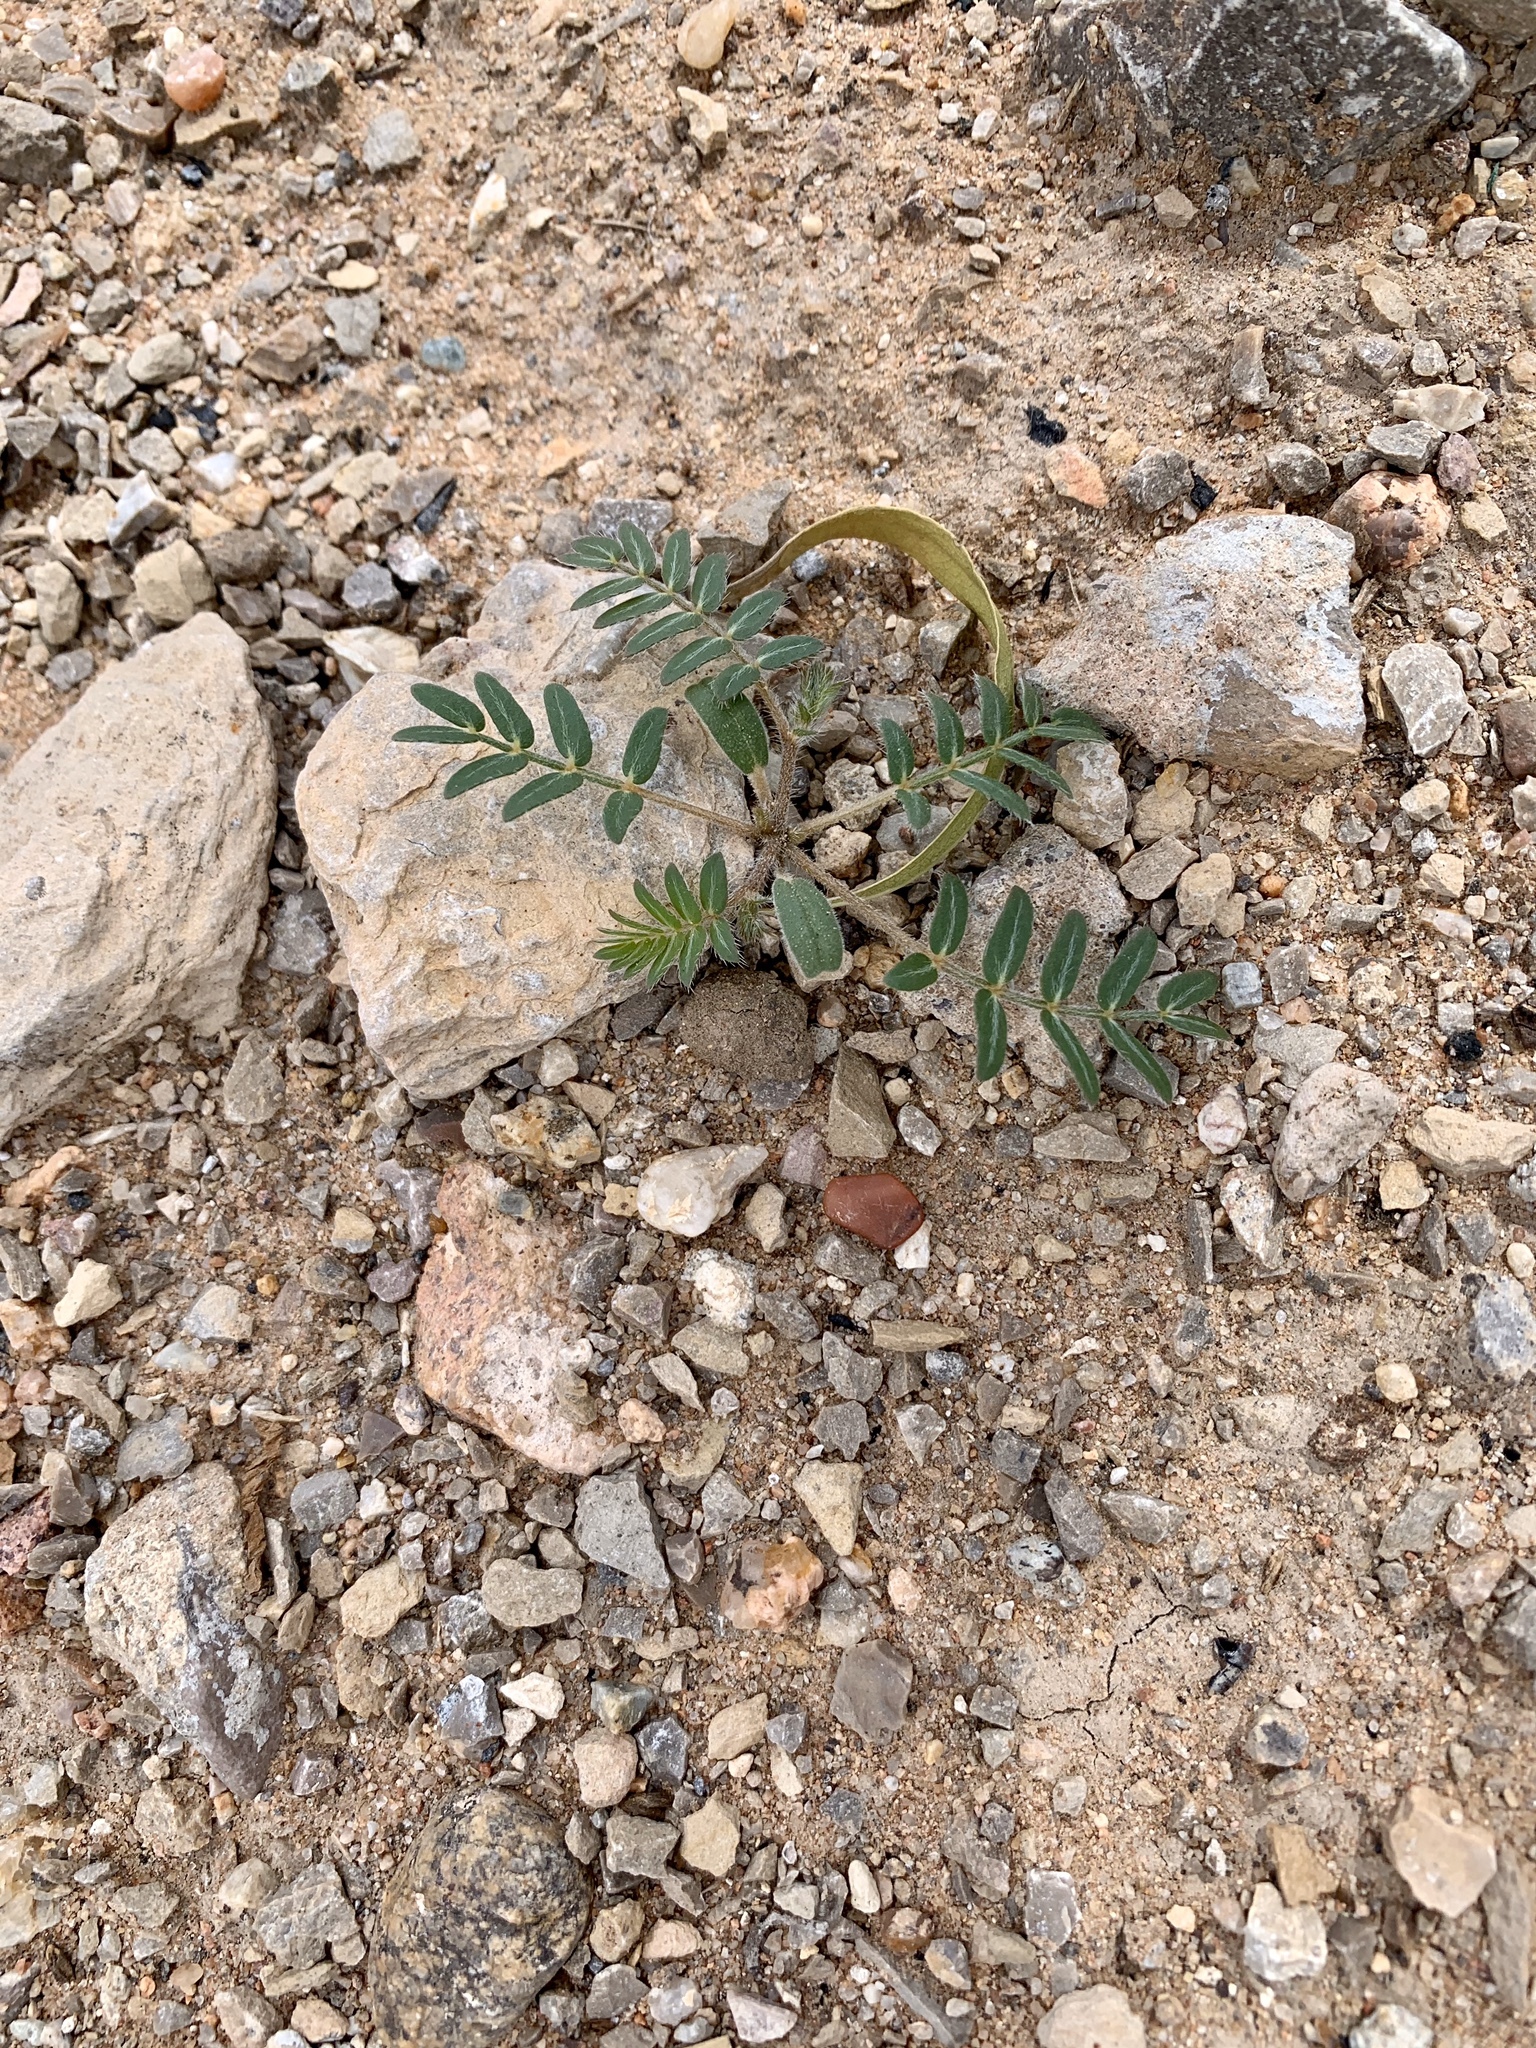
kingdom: Plantae
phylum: Tracheophyta
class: Magnoliopsida
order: Zygophyllales
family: Zygophyllaceae
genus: Tribulus
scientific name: Tribulus terrestris
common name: Puncturevine
